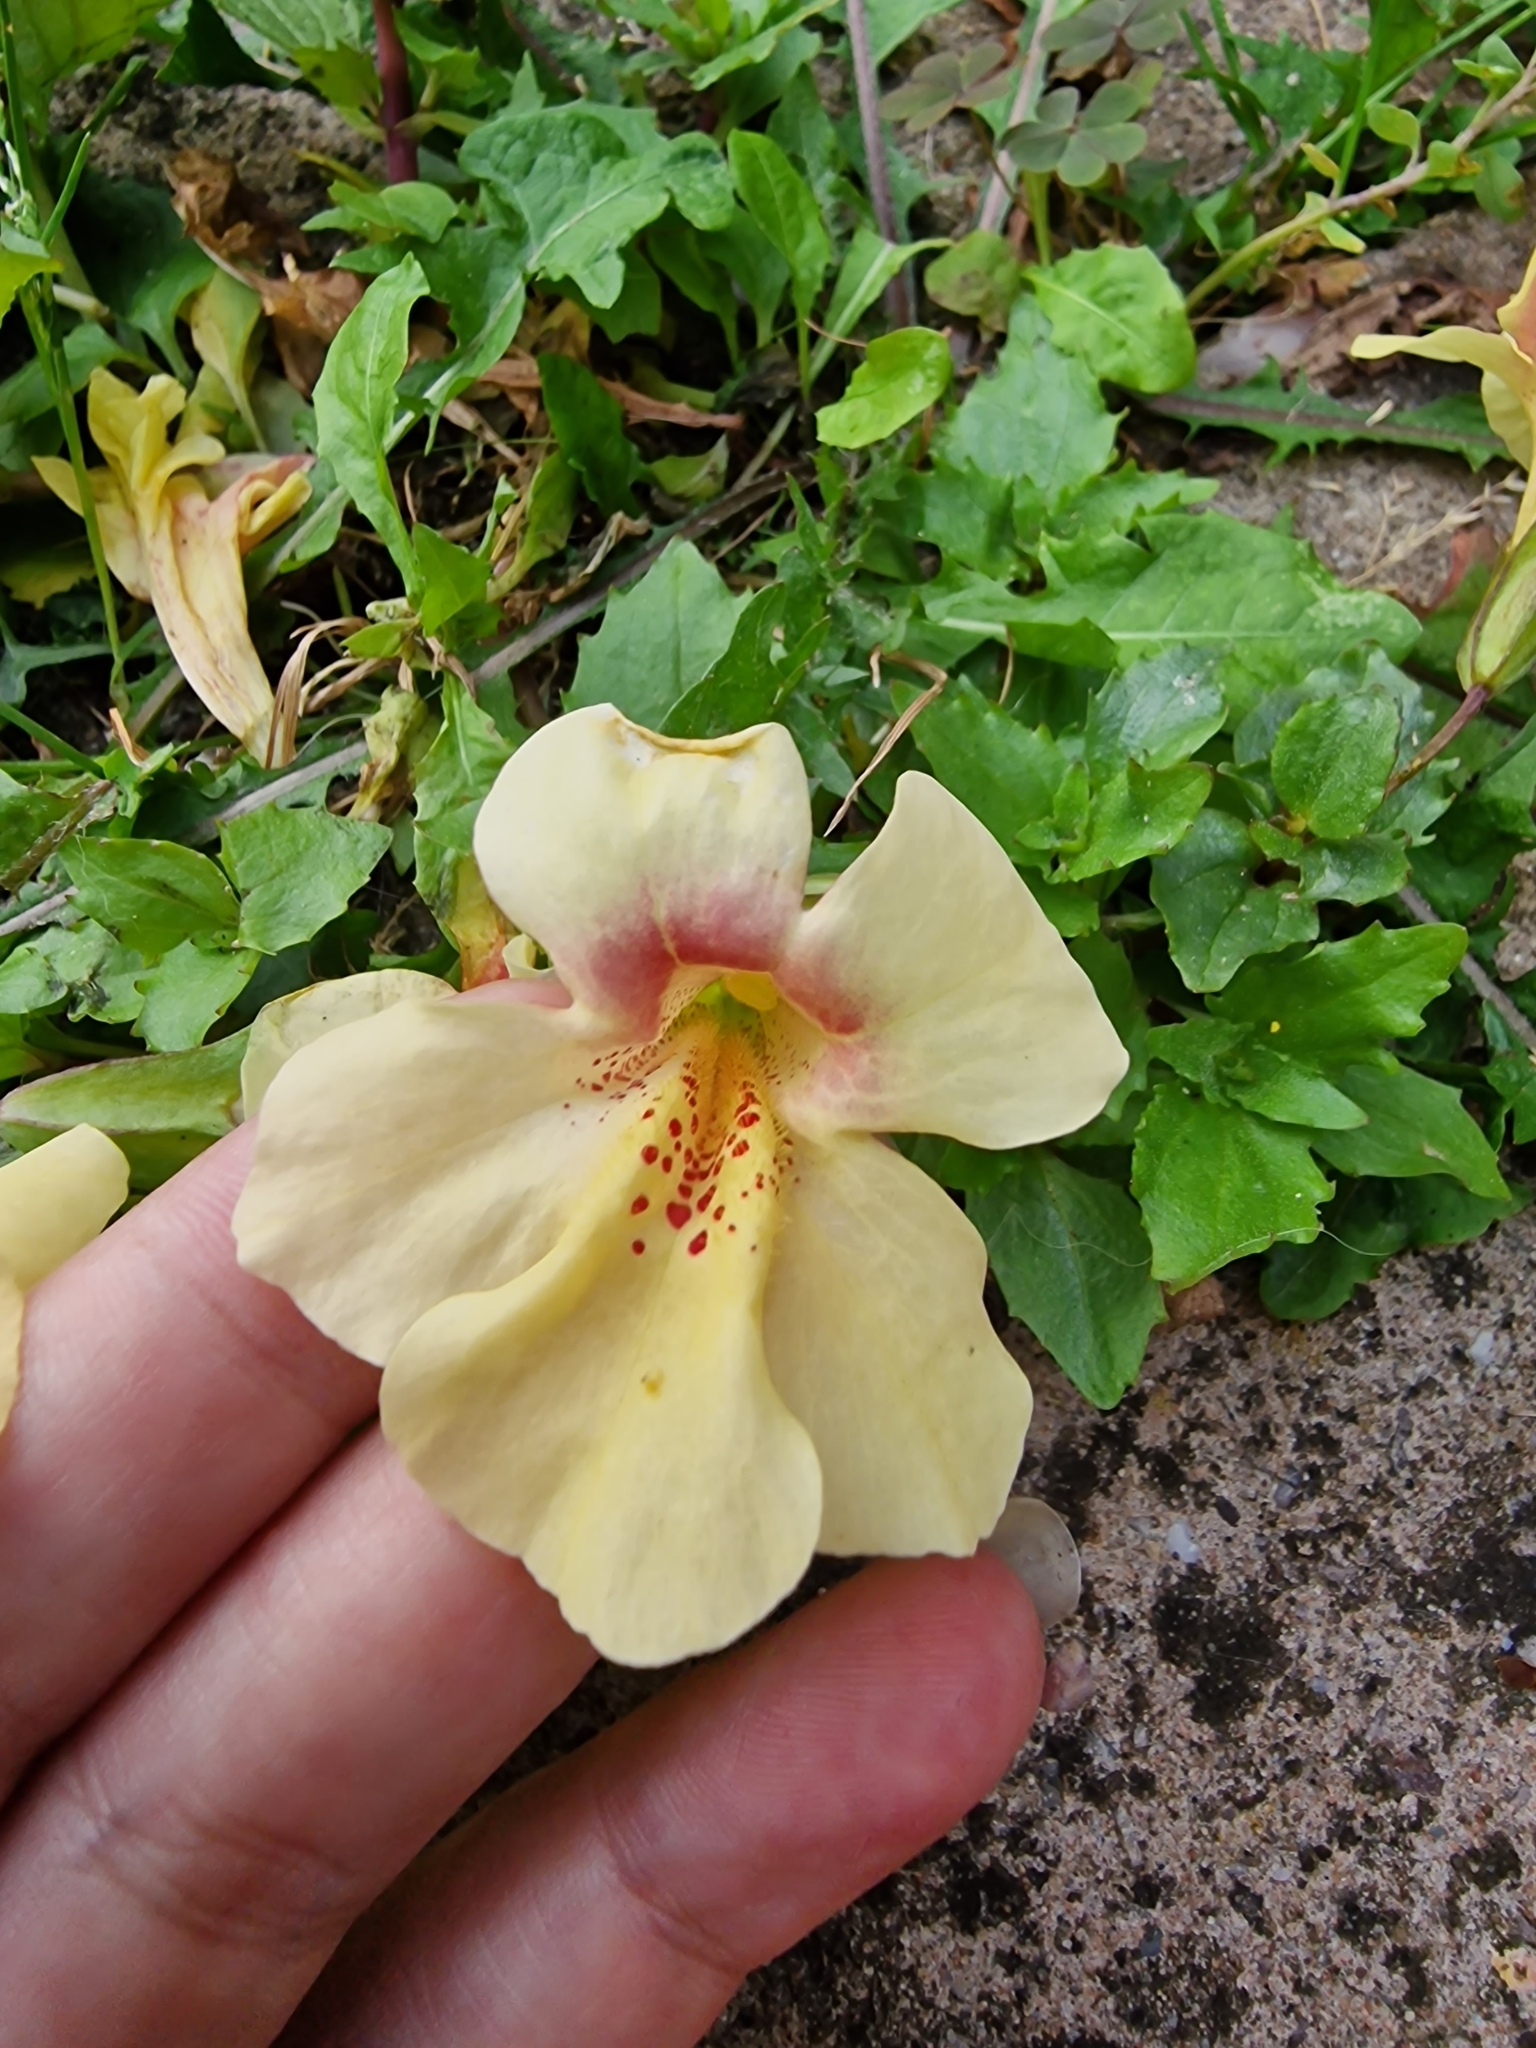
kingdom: Plantae
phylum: Tracheophyta
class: Magnoliopsida
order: Lamiales
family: Phrymaceae
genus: Erythranthe
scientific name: Erythranthe hybrida
